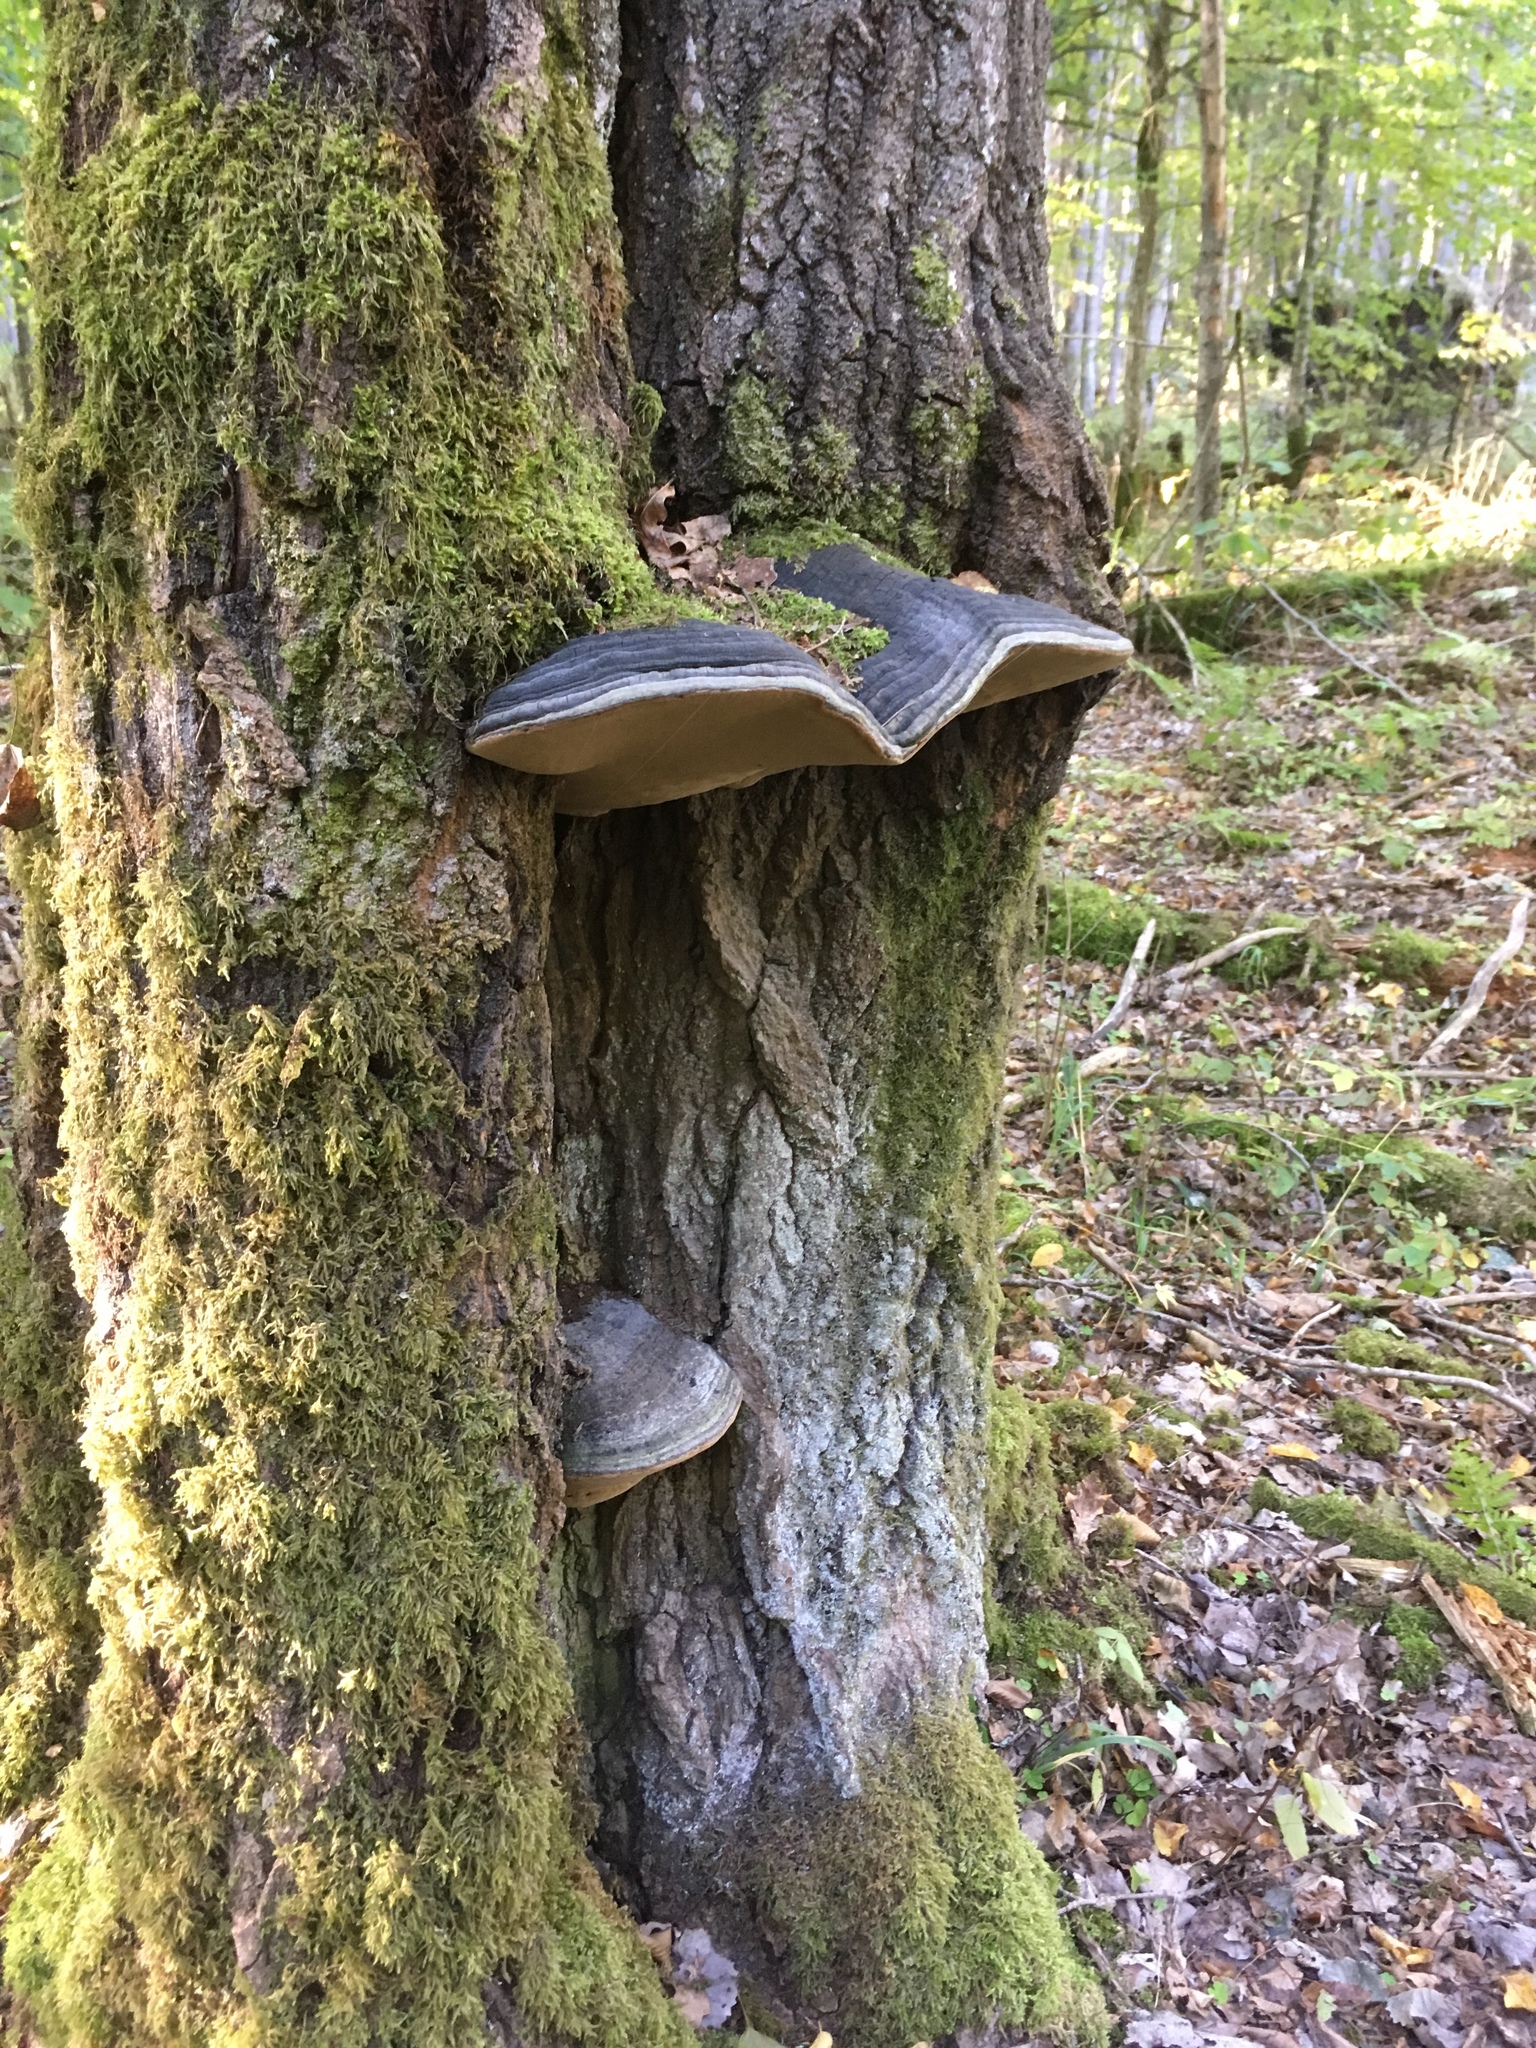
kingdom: Fungi
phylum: Basidiomycota
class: Agaricomycetes
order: Hymenochaetales
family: Hymenochaetaceae
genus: Phellinus
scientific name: Phellinus populicola
